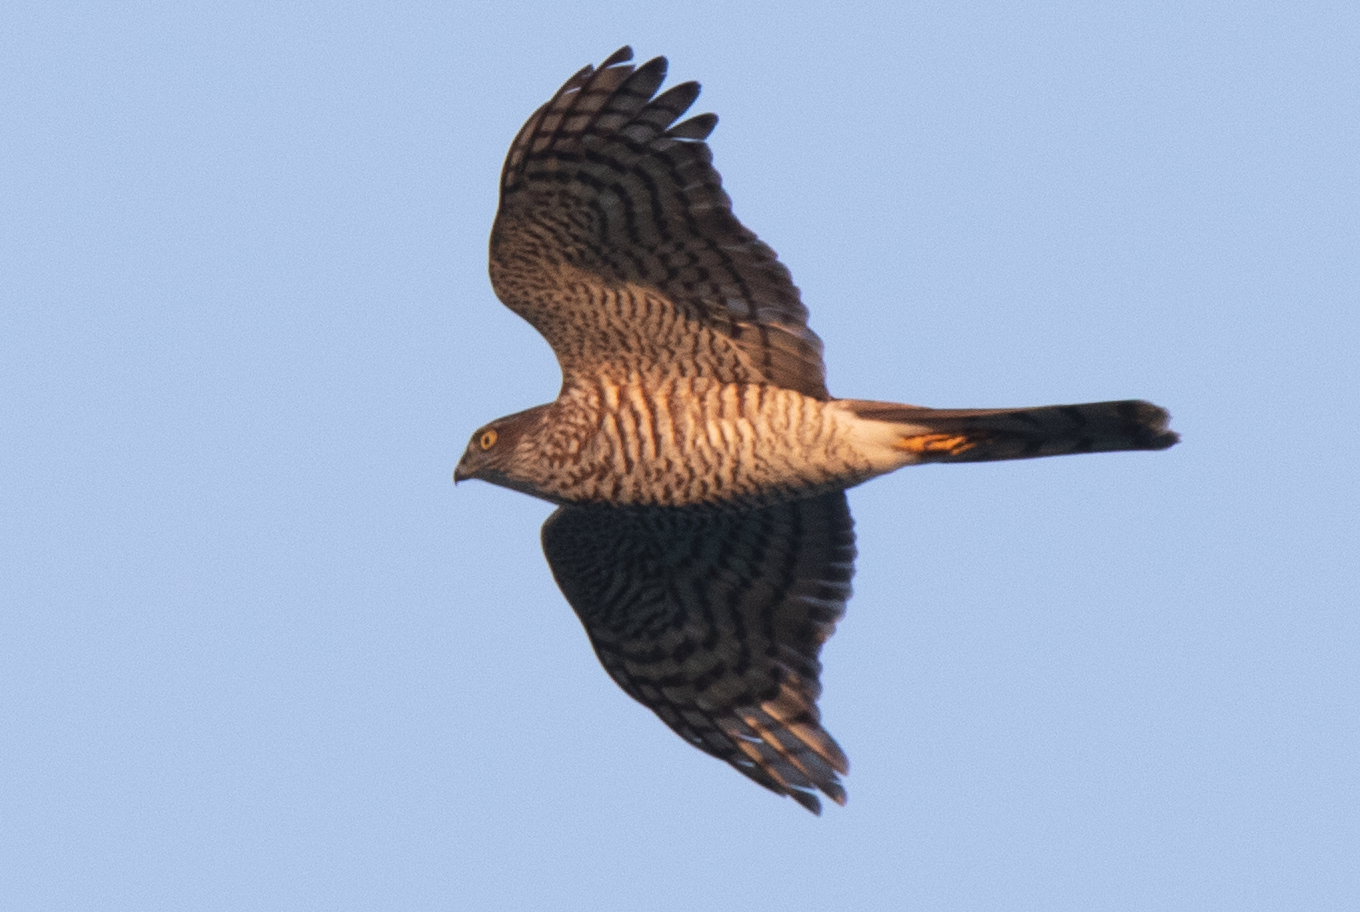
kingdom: Animalia
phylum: Chordata
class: Aves
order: Accipitriformes
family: Accipitridae
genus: Accipiter
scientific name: Accipiter nisus
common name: Eurasian sparrowhawk
